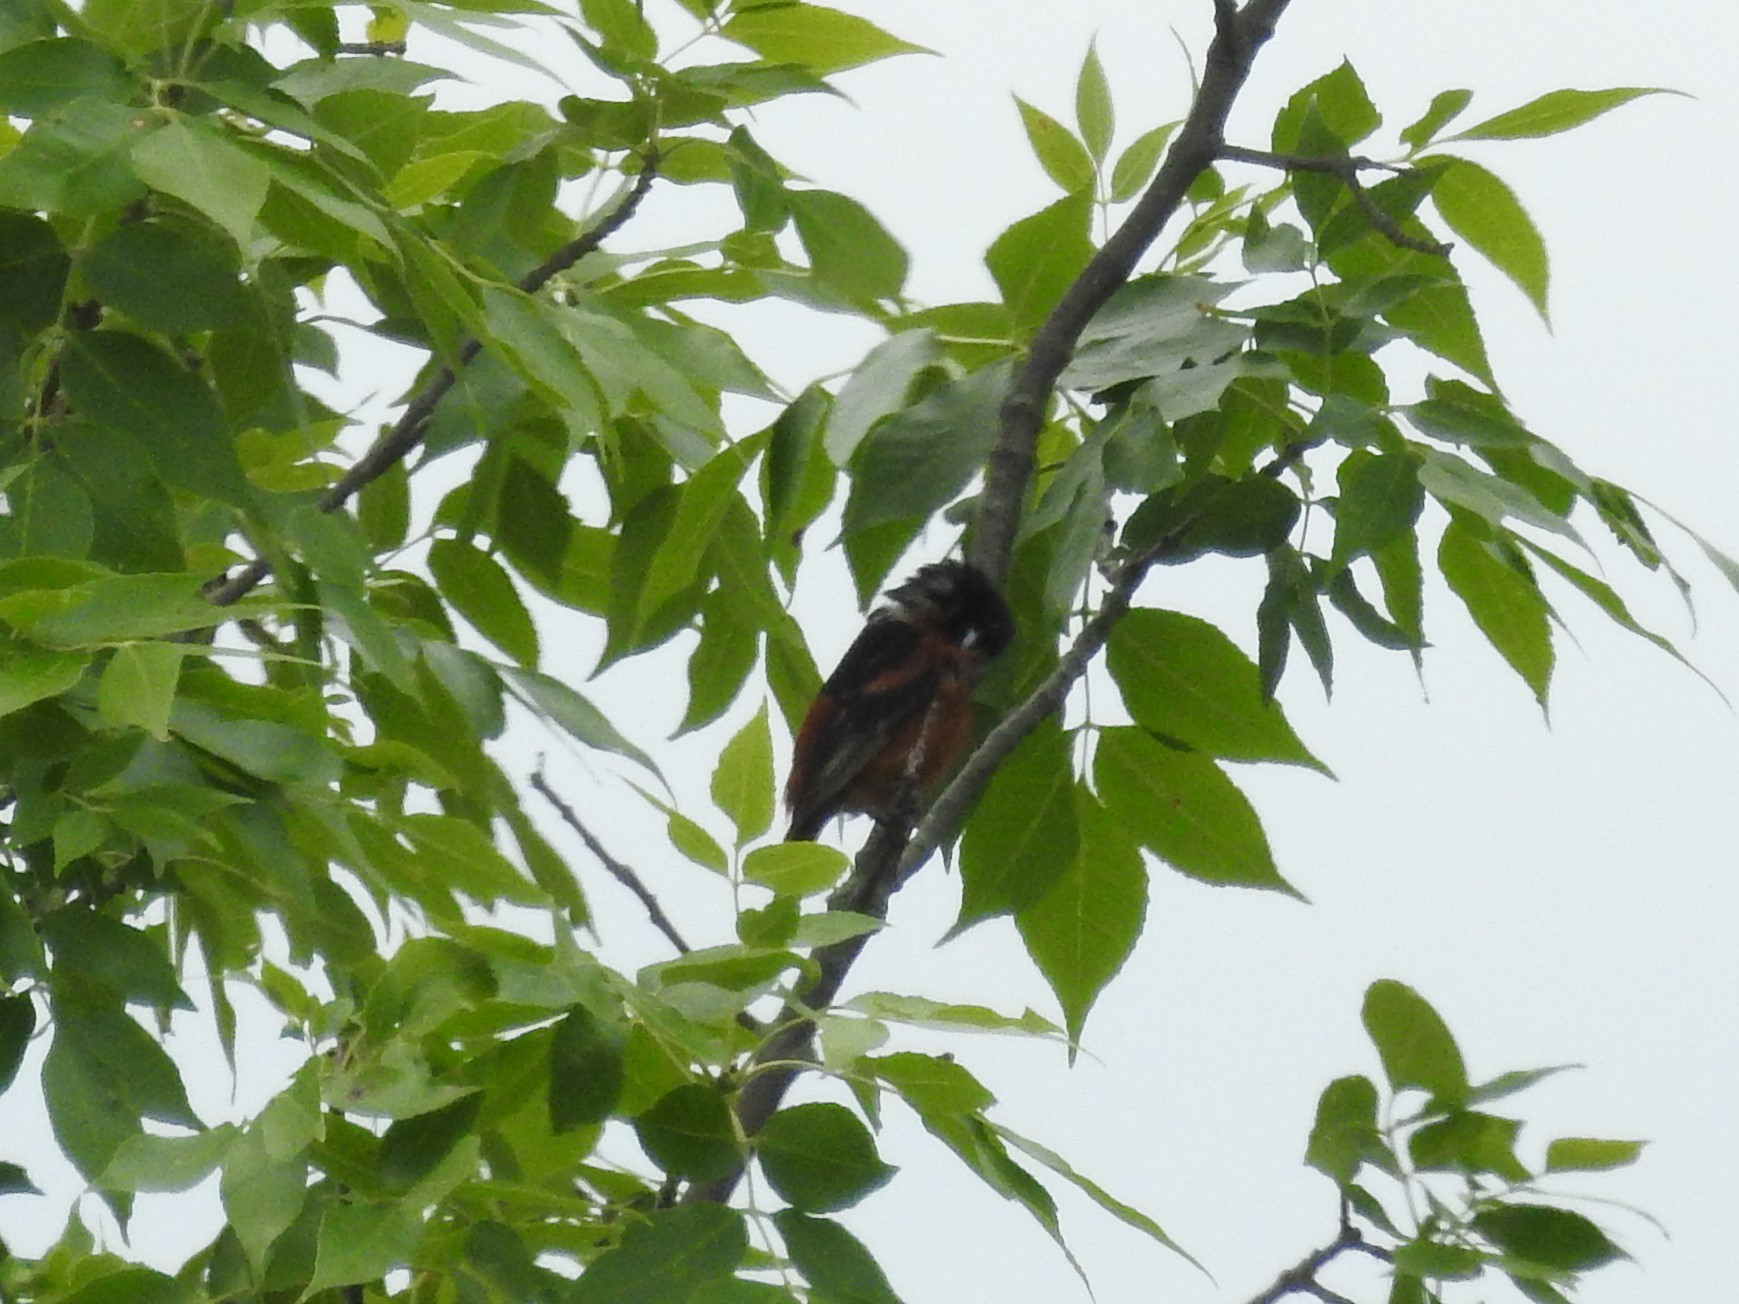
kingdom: Animalia
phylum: Chordata
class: Aves
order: Passeriformes
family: Icteridae
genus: Icterus
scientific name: Icterus spurius
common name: Orchard oriole
